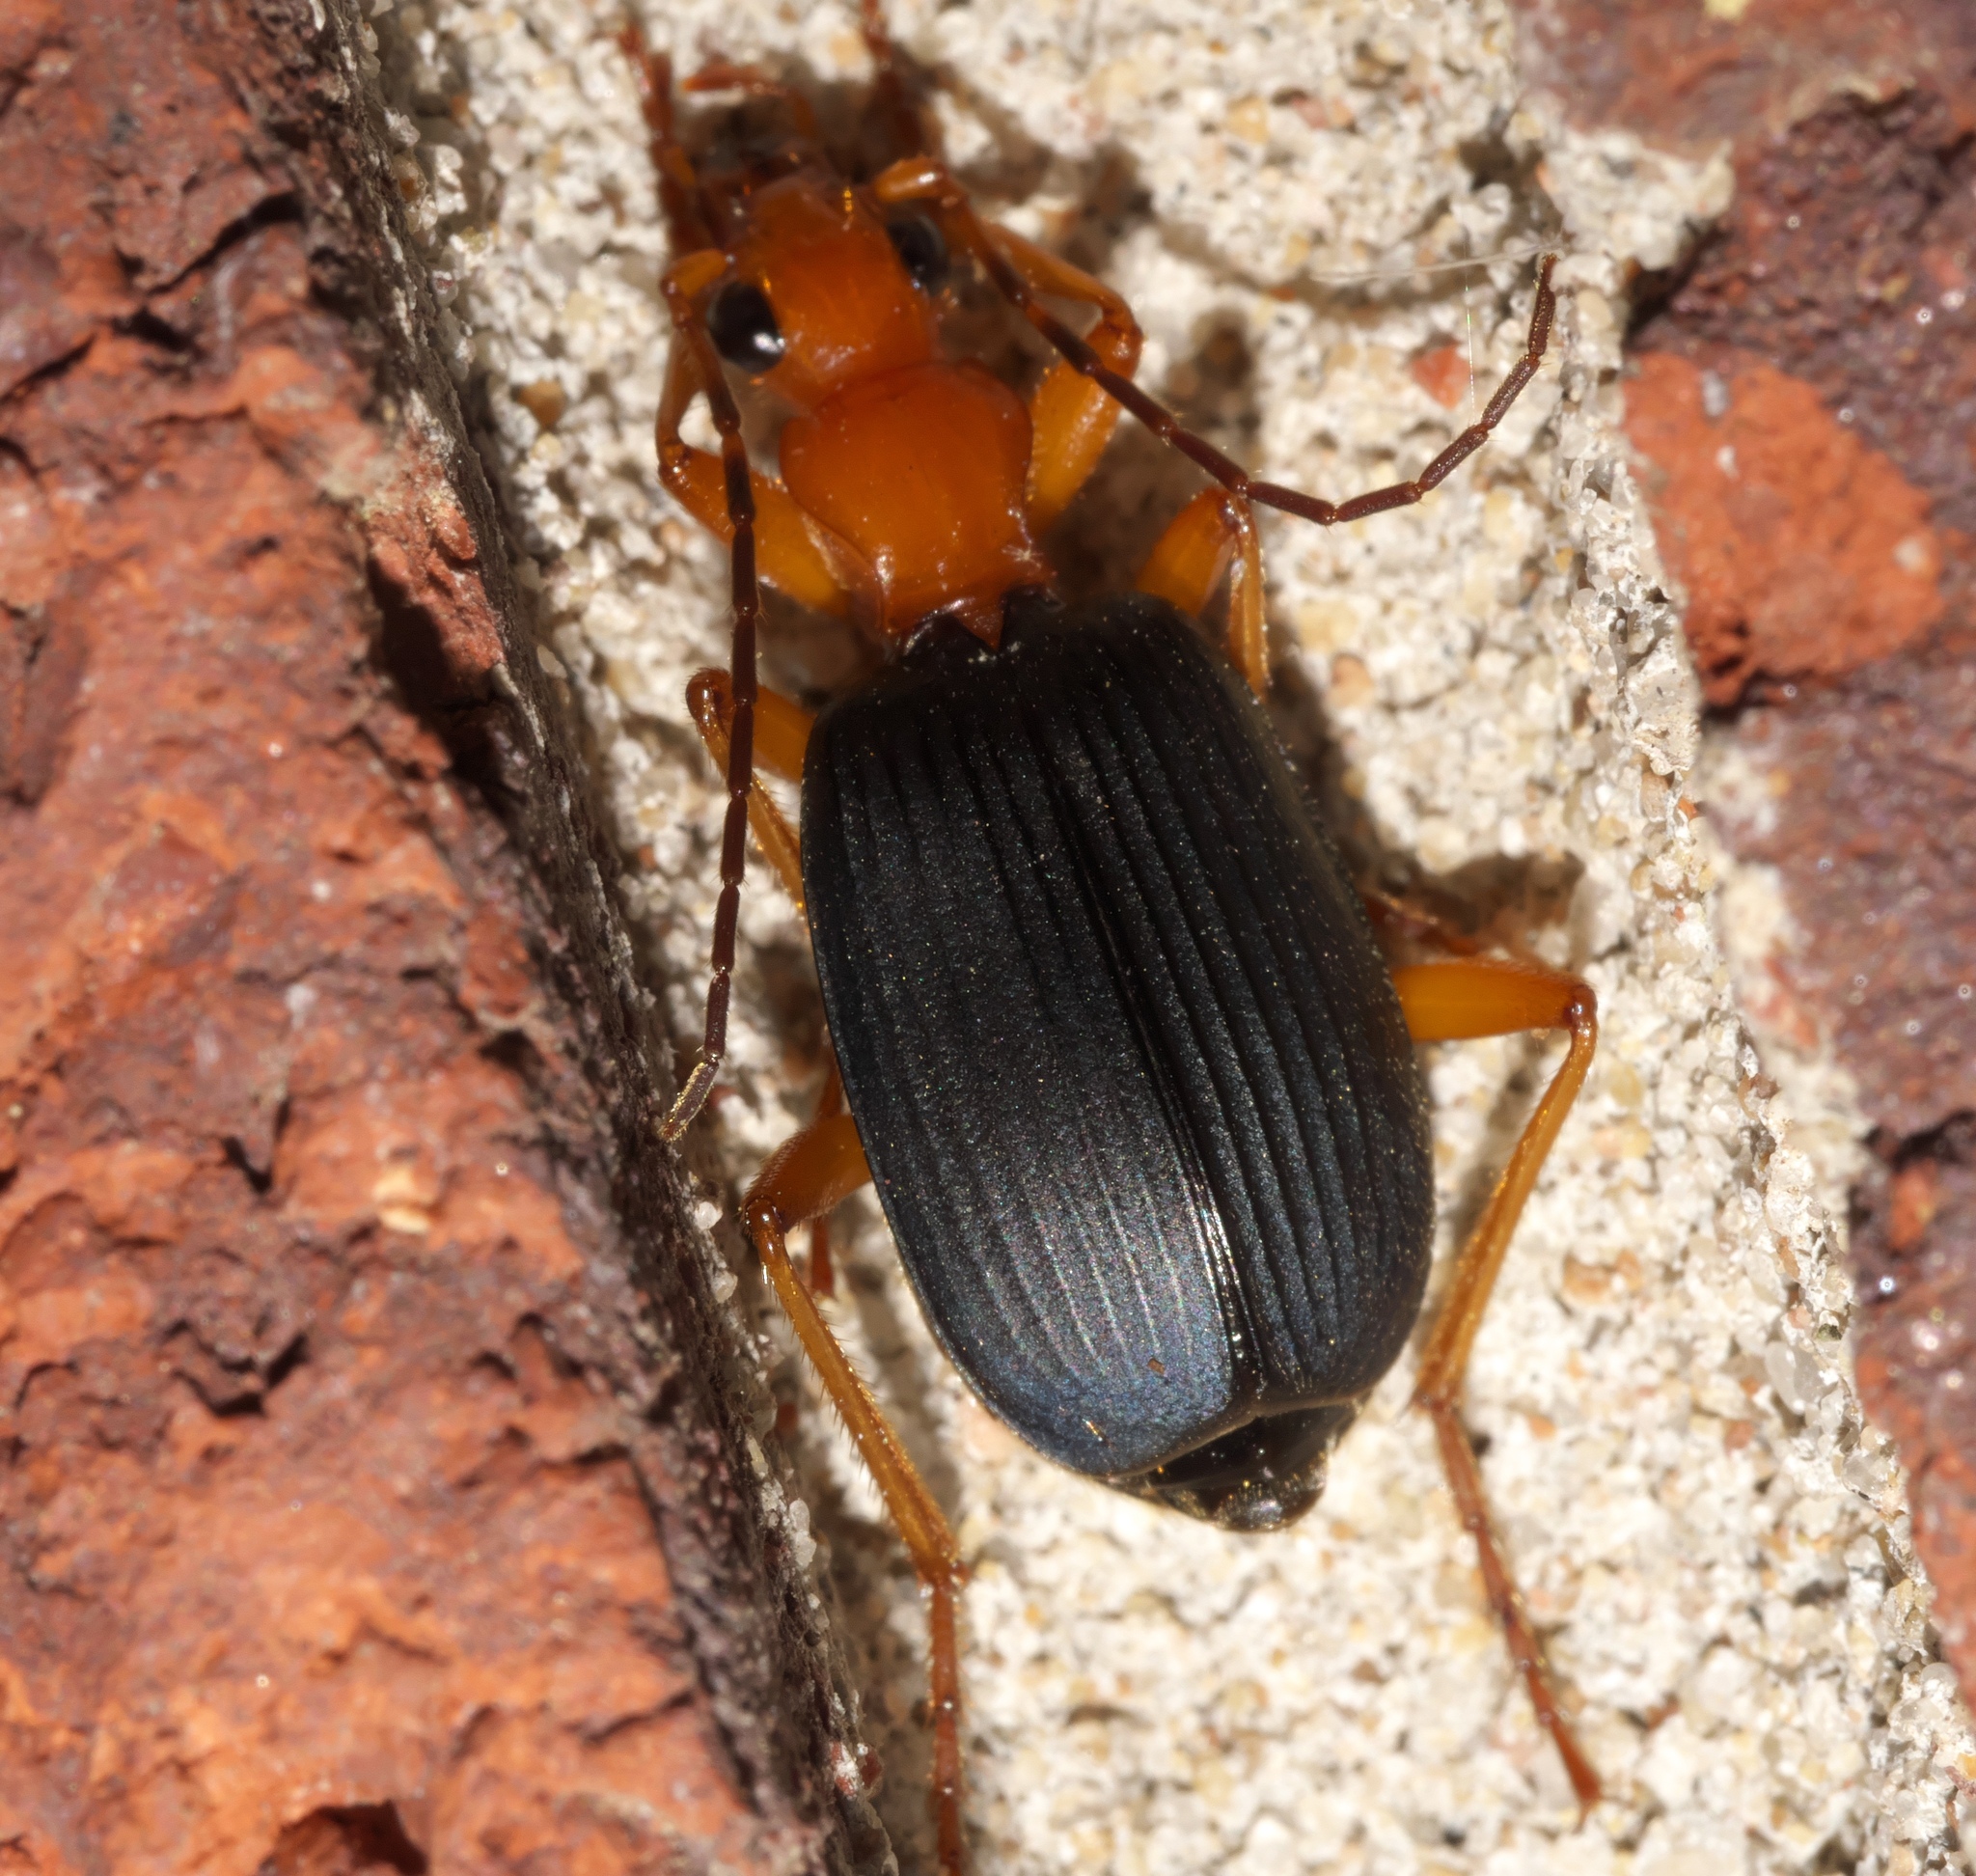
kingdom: Animalia
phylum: Arthropoda
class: Insecta
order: Coleoptera
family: Carabidae
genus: Brachinus
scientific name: Brachinus tenuicollis
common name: Narrow-necked little bombardier beetle
